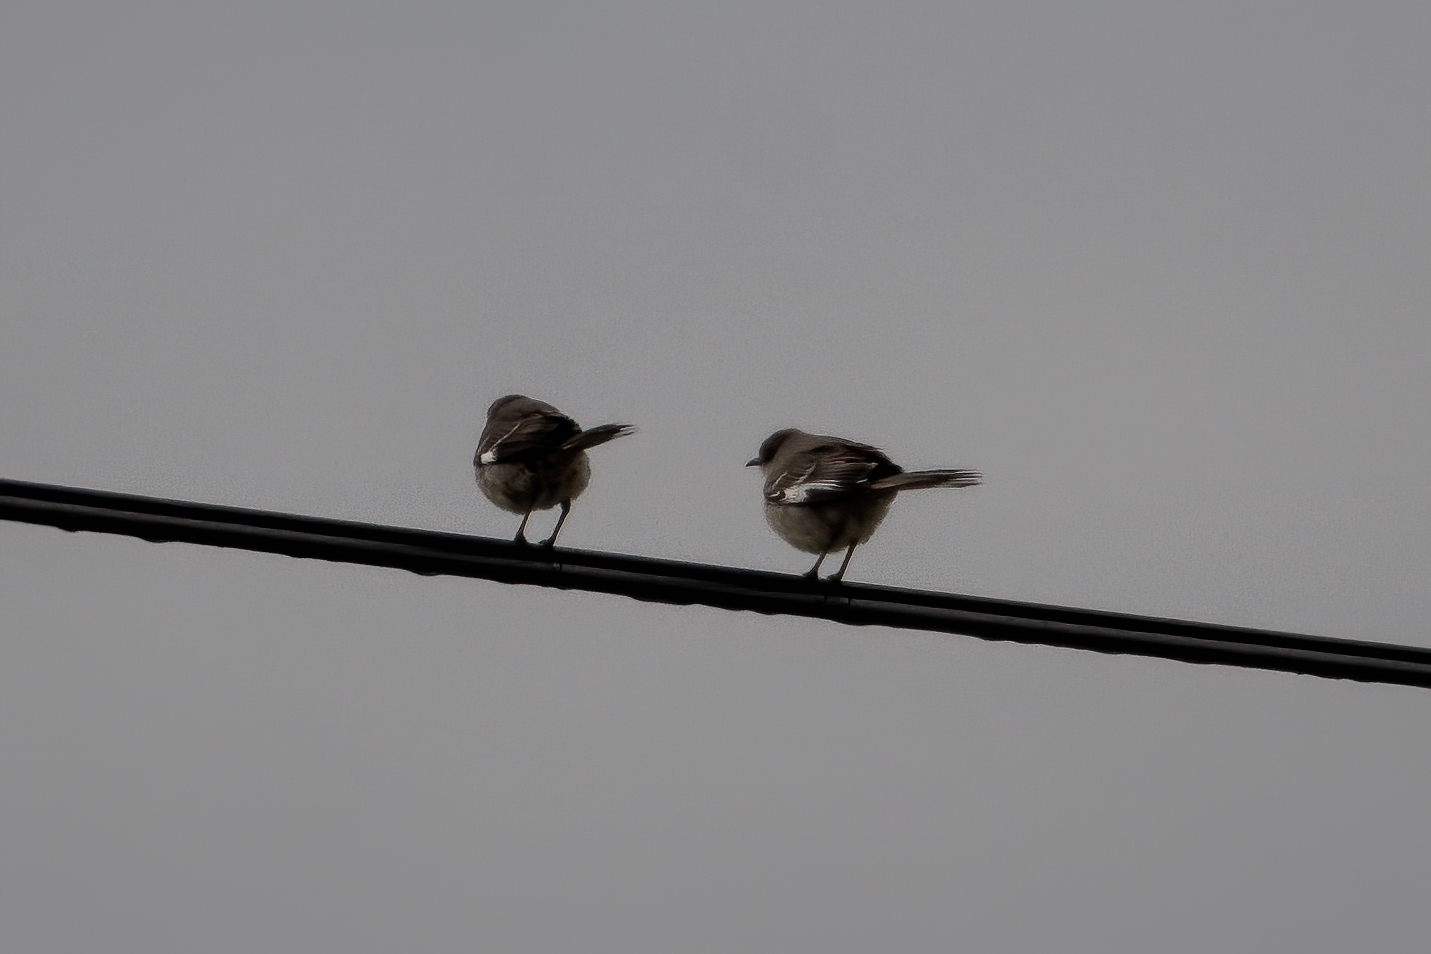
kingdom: Animalia
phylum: Chordata
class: Aves
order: Passeriformes
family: Mimidae
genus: Mimus
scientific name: Mimus polyglottos
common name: Northern mockingbird
